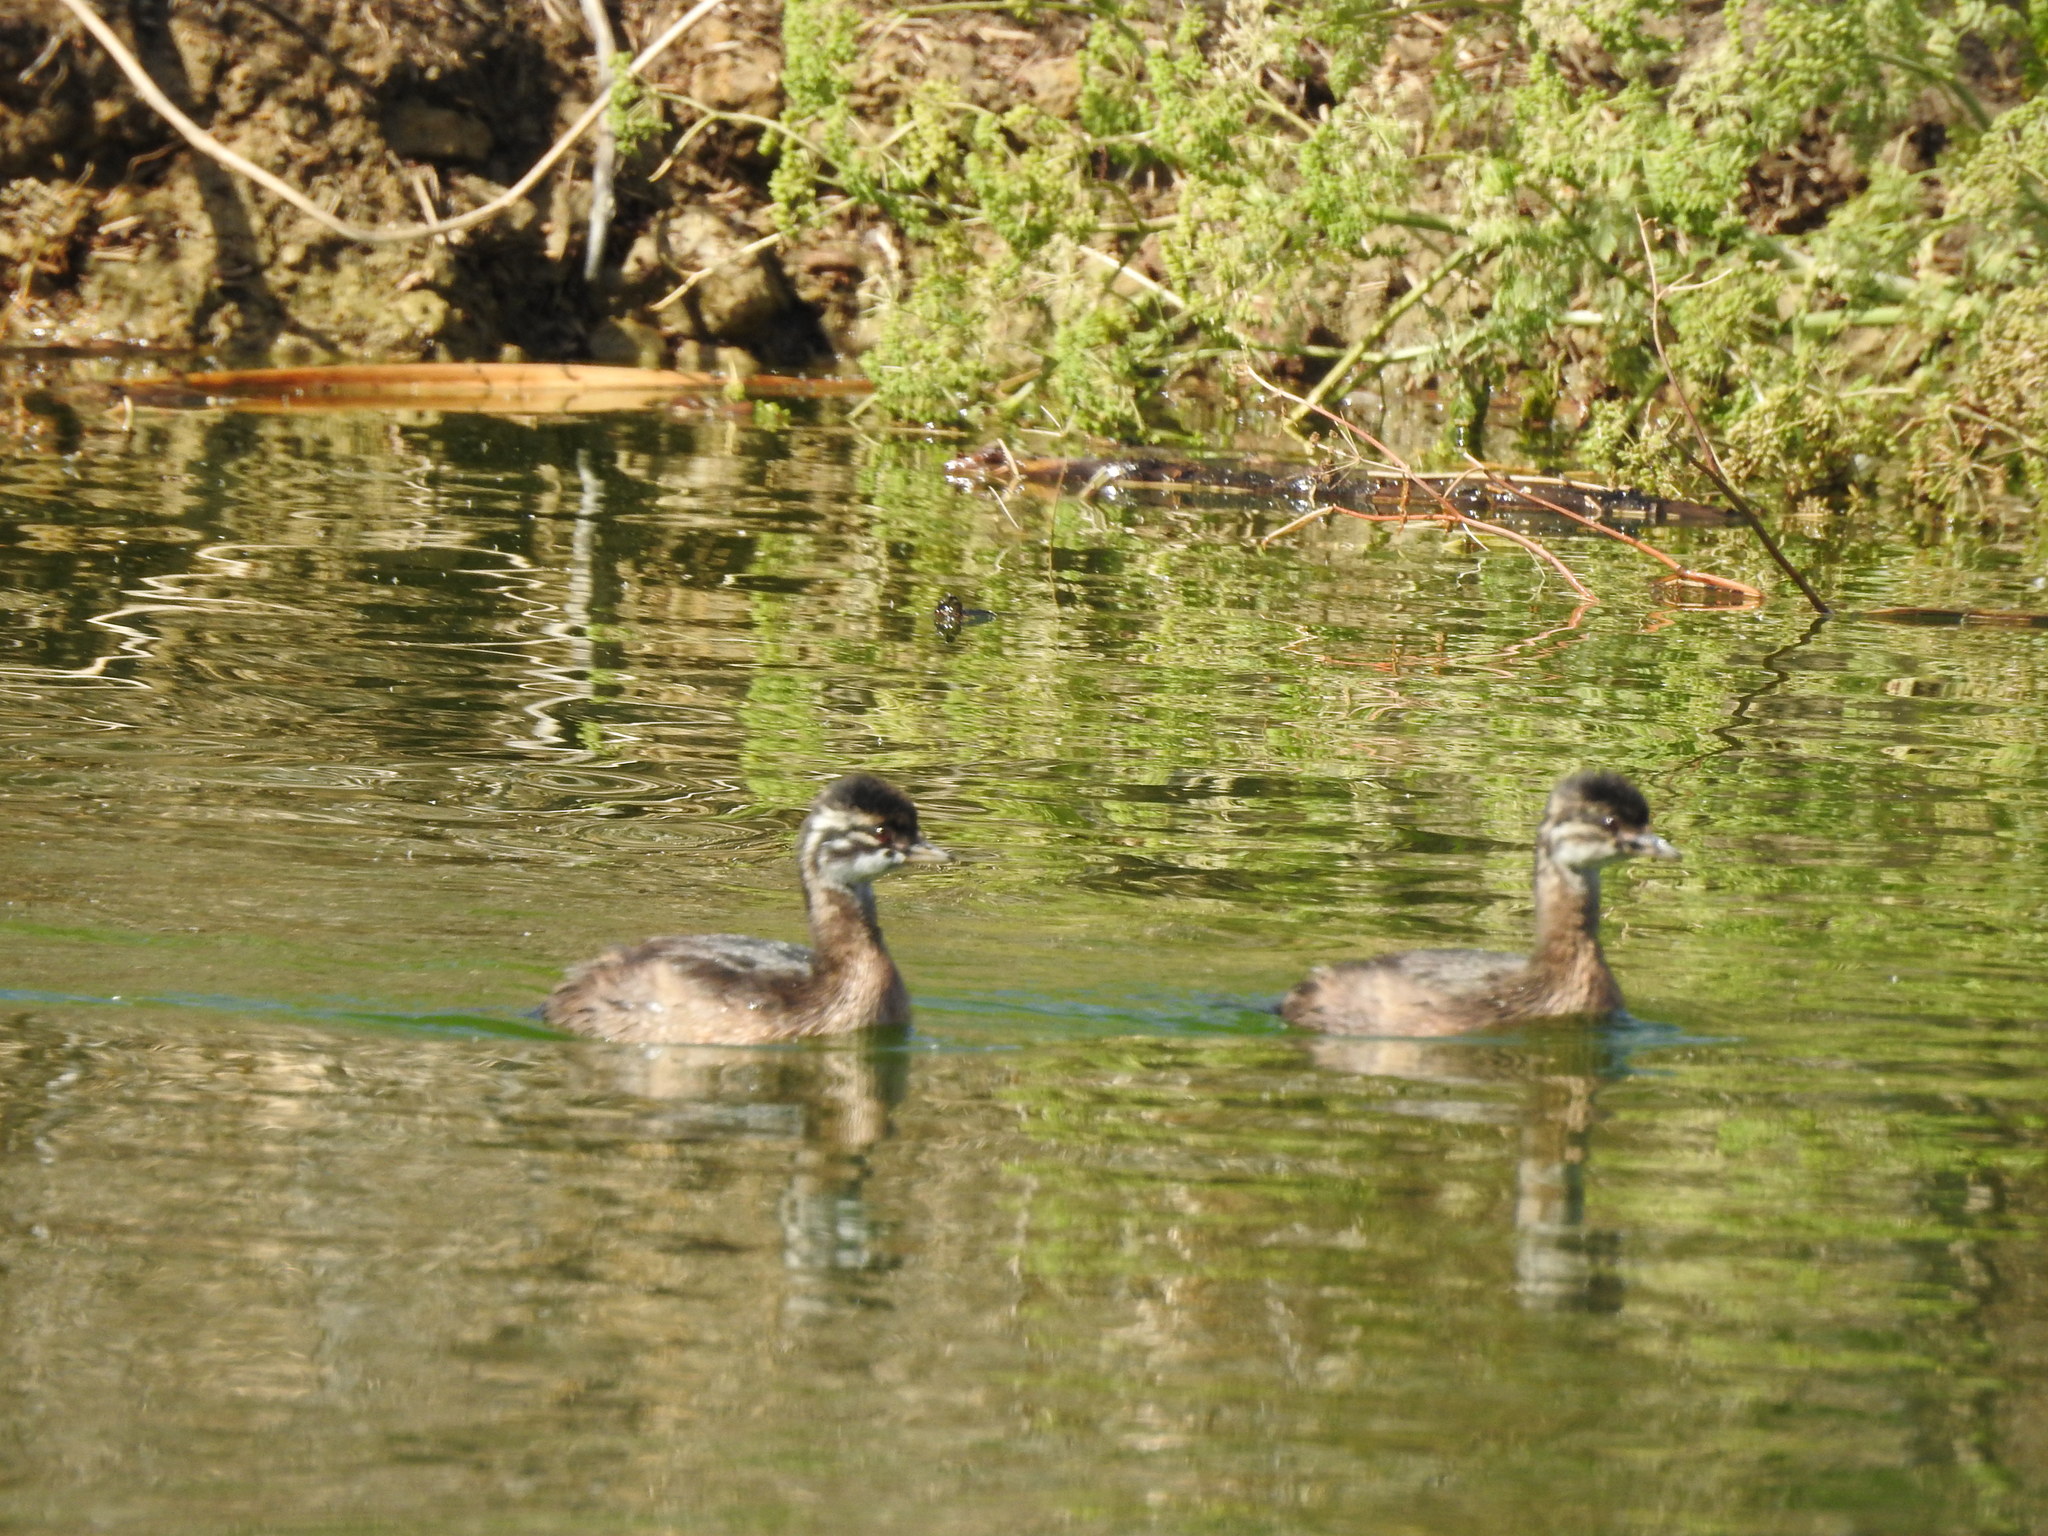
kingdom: Animalia
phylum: Chordata
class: Aves
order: Podicipediformes
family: Podicipedidae
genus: Rollandia
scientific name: Rollandia rolland
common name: White-tufted grebe
